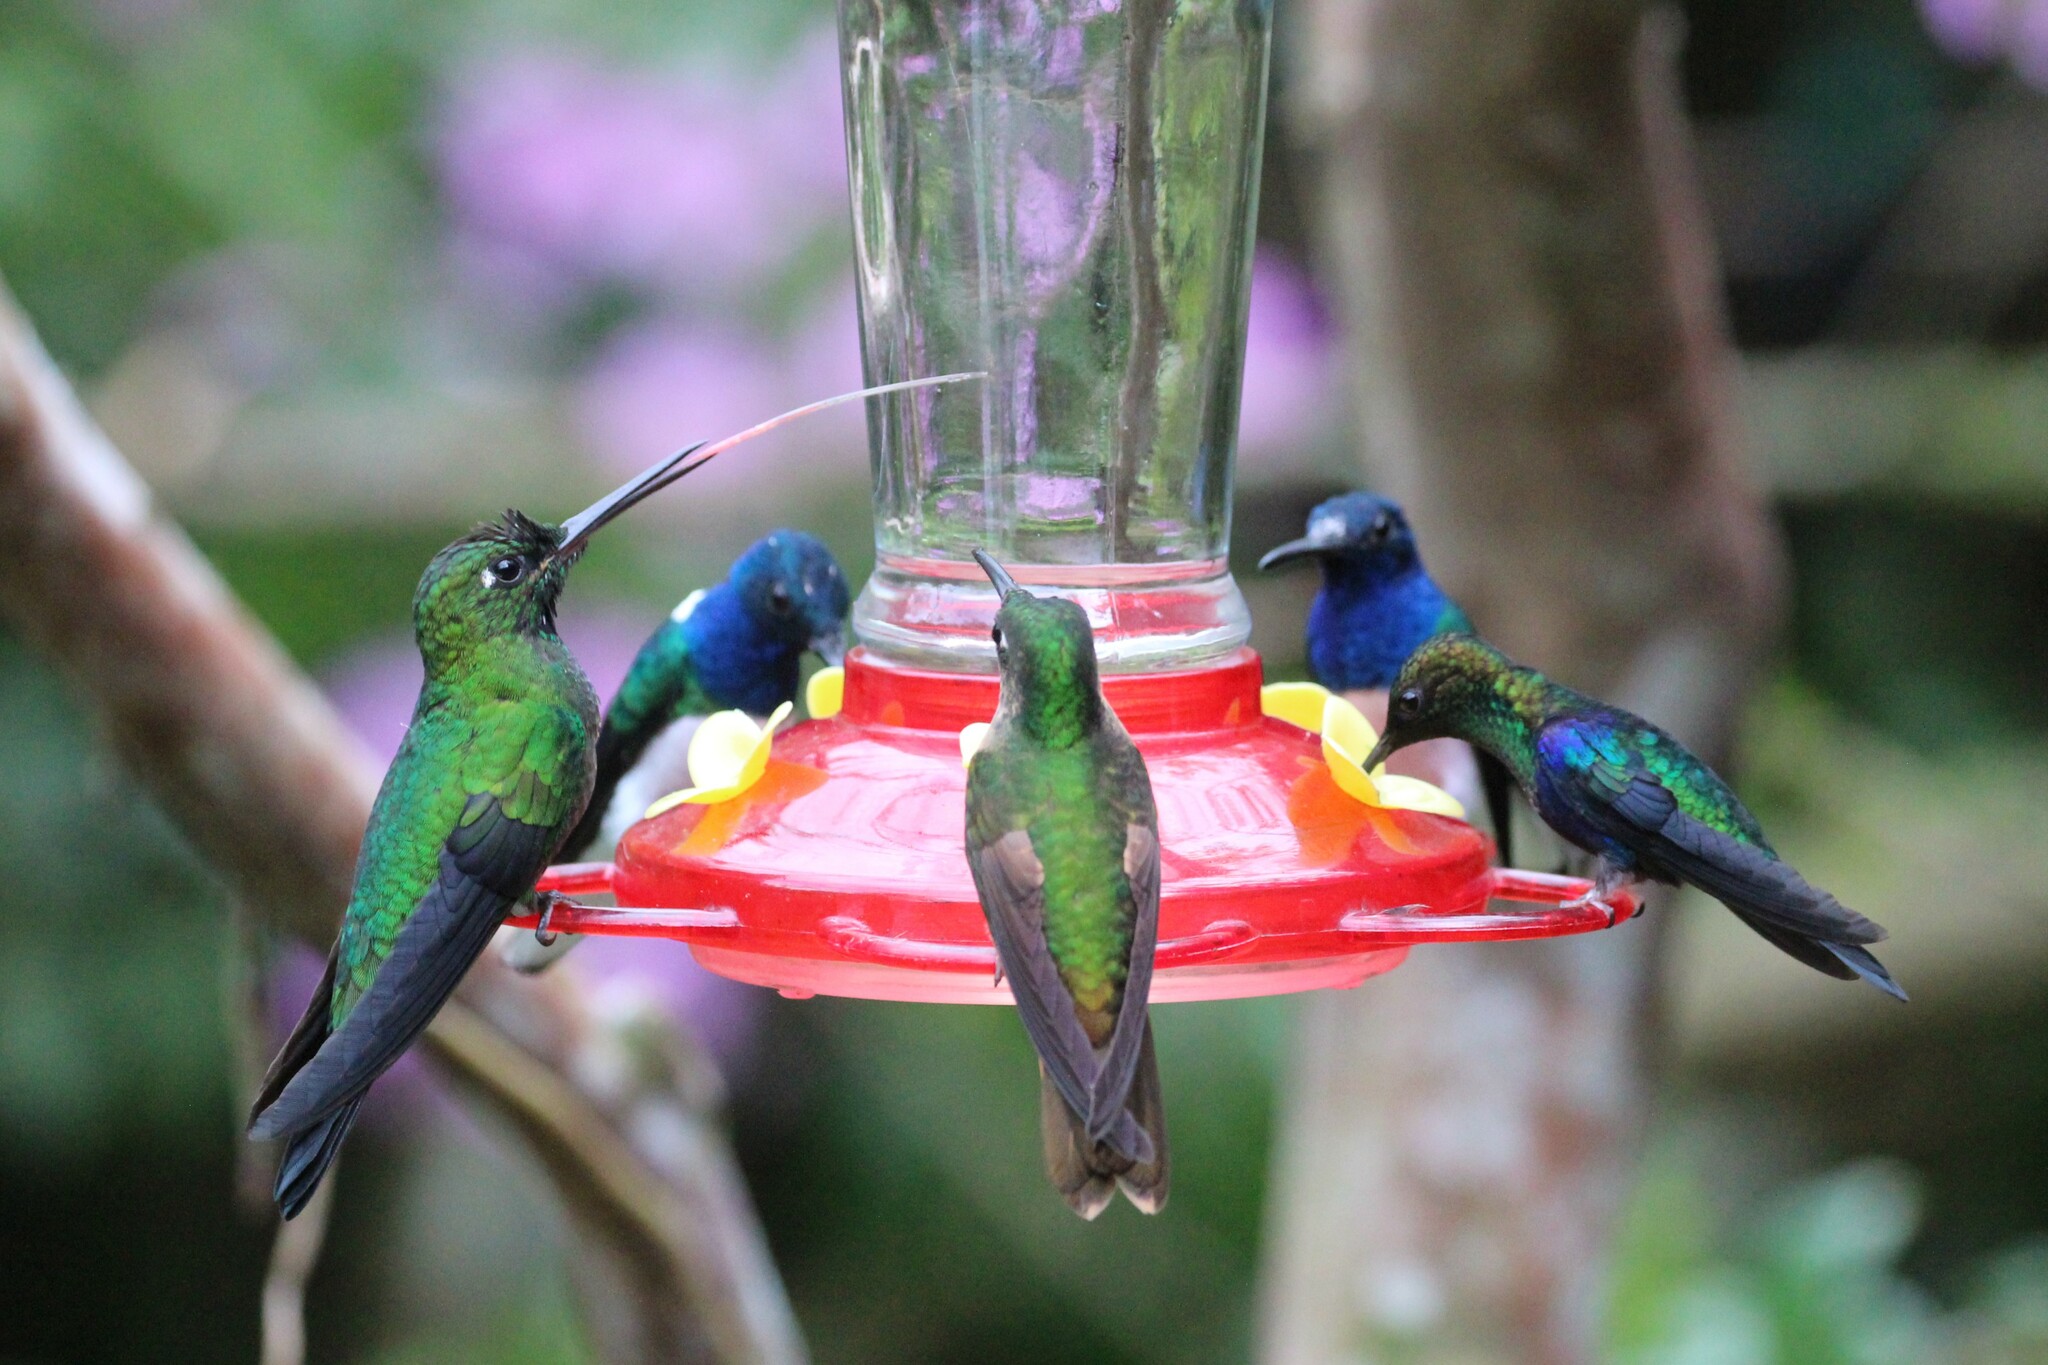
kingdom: Animalia
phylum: Chordata
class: Aves
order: Apodiformes
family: Trochilidae
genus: Heliodoxa
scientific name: Heliodoxa jacula
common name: Green-crowned brilliant
